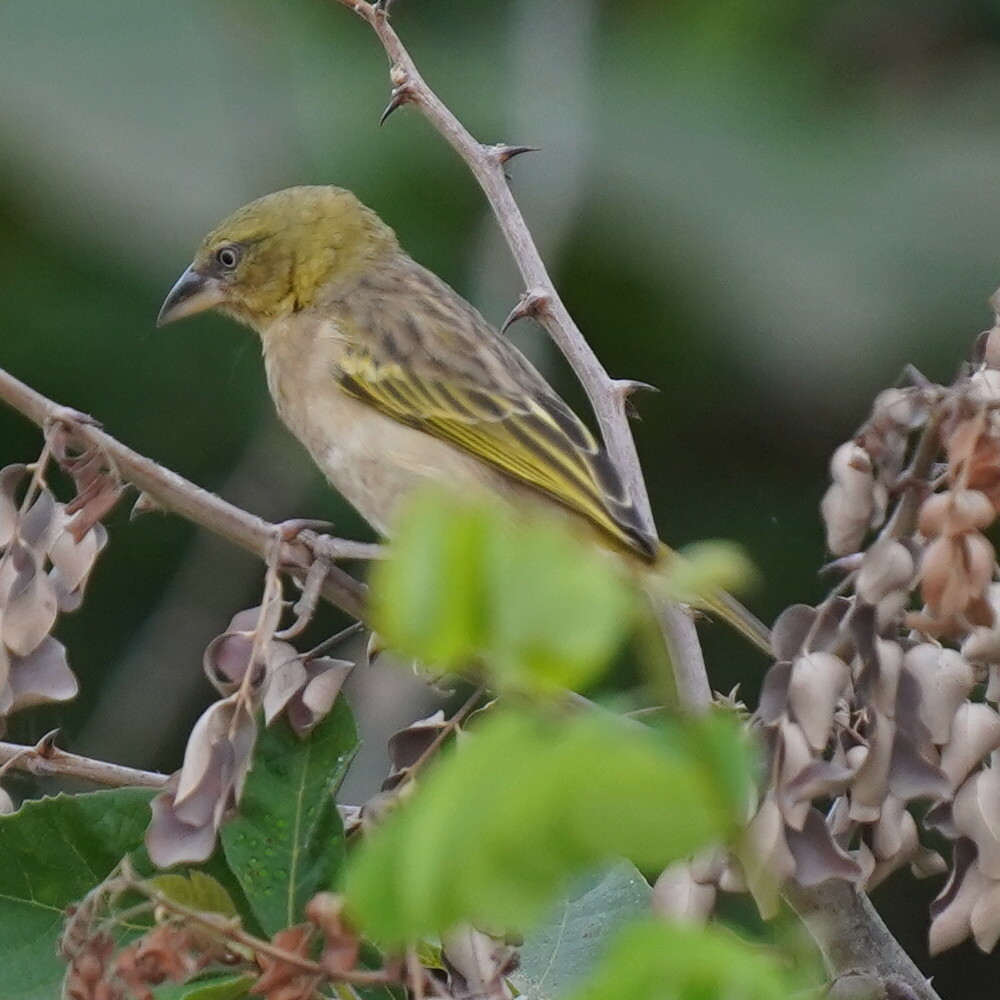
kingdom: Animalia
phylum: Chordata
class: Aves
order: Passeriformes
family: Ploceidae
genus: Ploceus
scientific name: Ploceus melanocephalus
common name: Black-headed weaver
